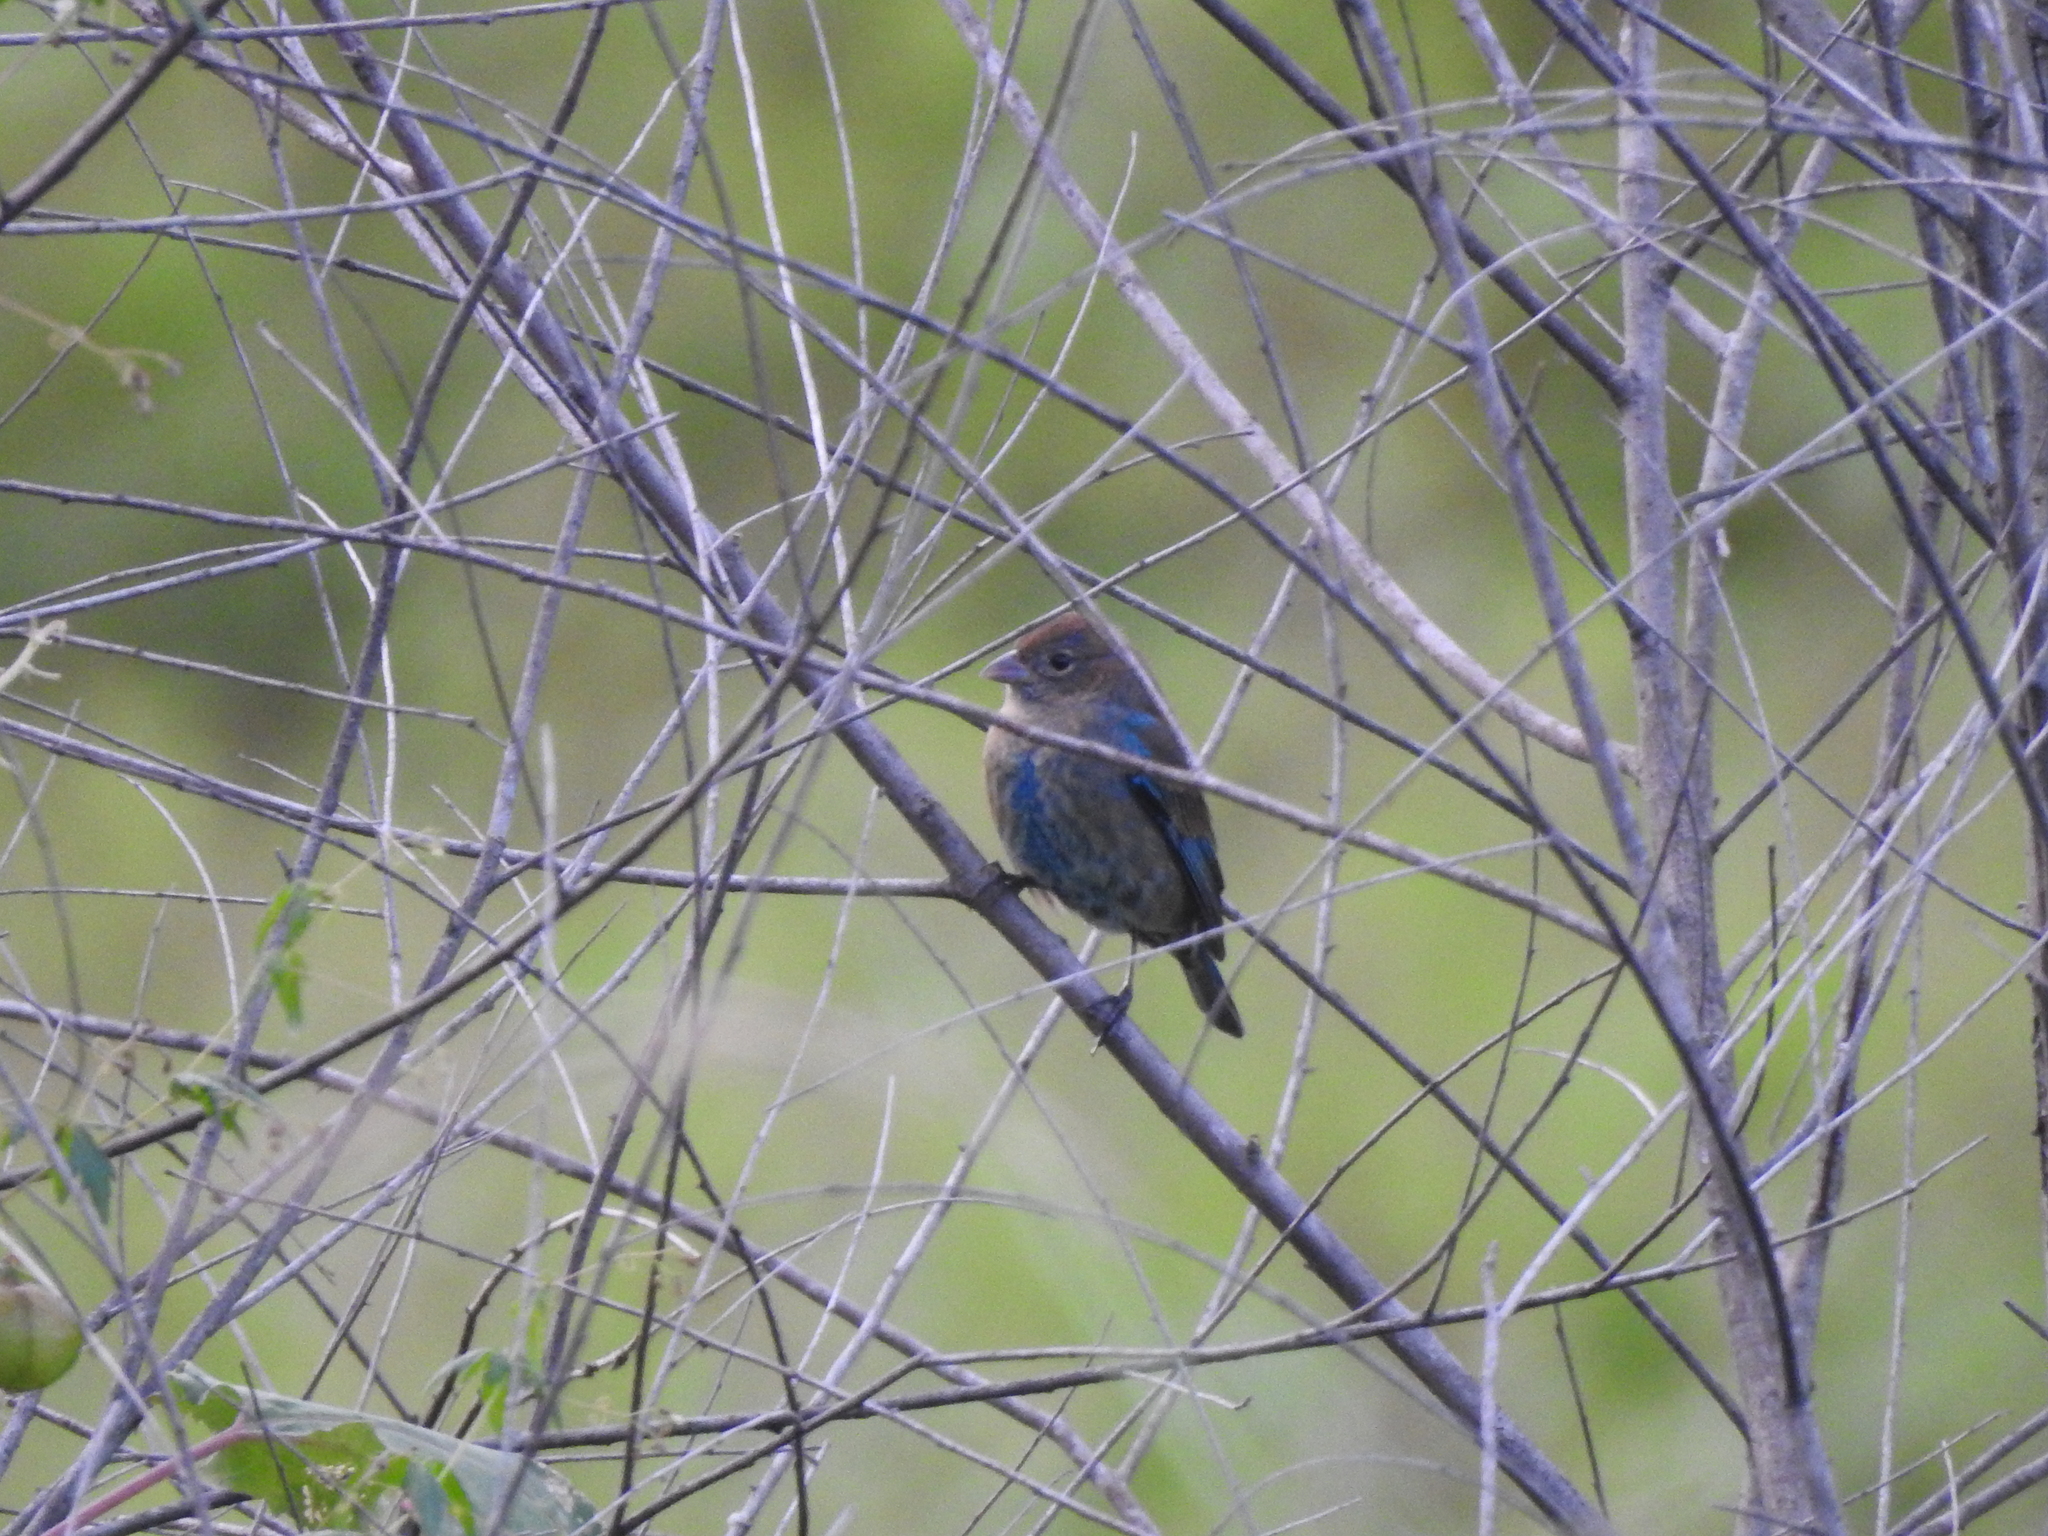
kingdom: Animalia
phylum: Chordata
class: Aves
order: Passeriformes
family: Cardinalidae
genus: Passerina
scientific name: Passerina cyanea
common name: Indigo bunting
